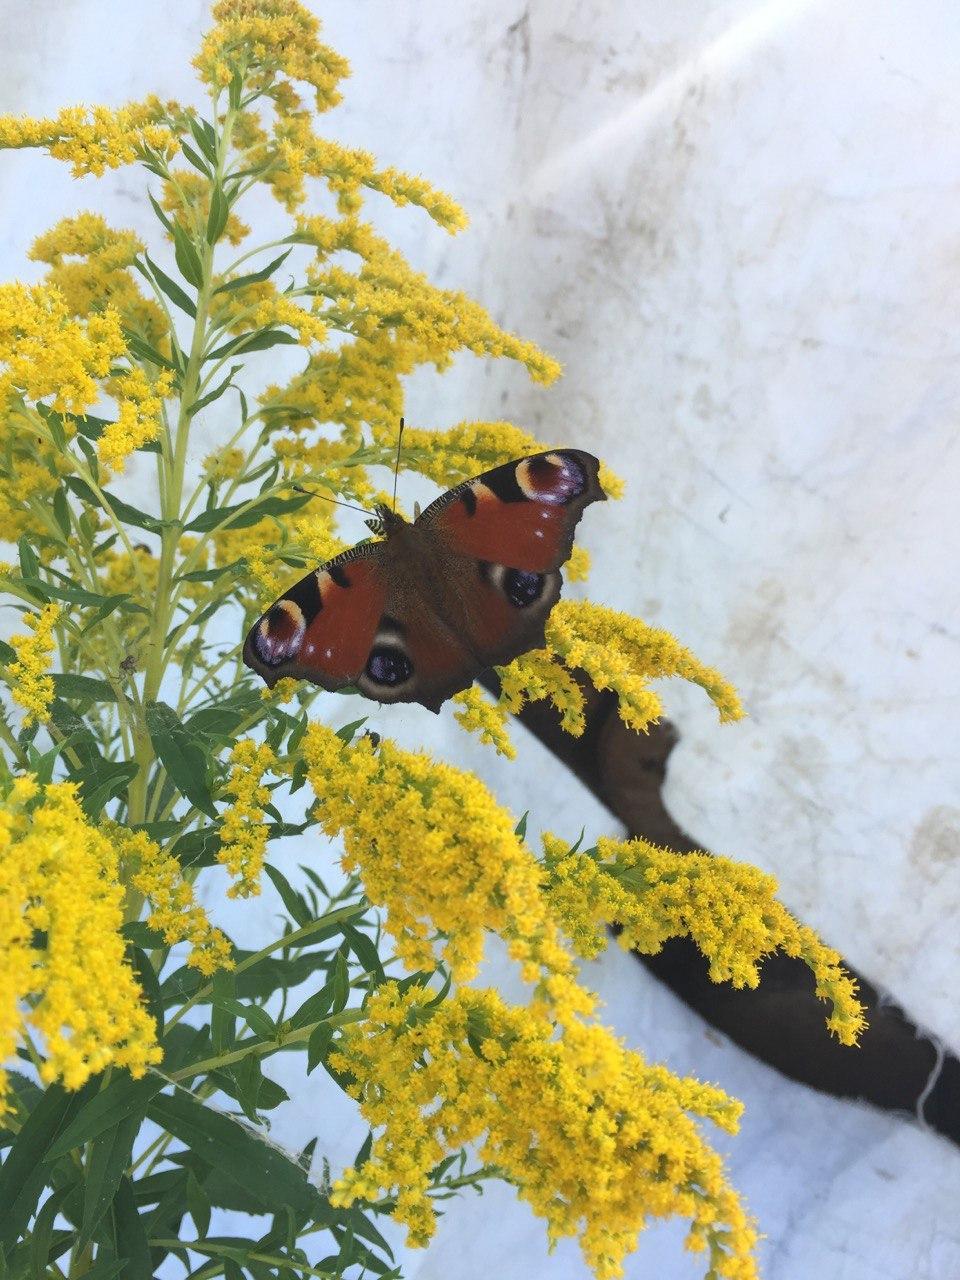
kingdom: Animalia
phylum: Arthropoda
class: Insecta
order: Lepidoptera
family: Nymphalidae
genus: Aglais
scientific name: Aglais io
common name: Peacock
